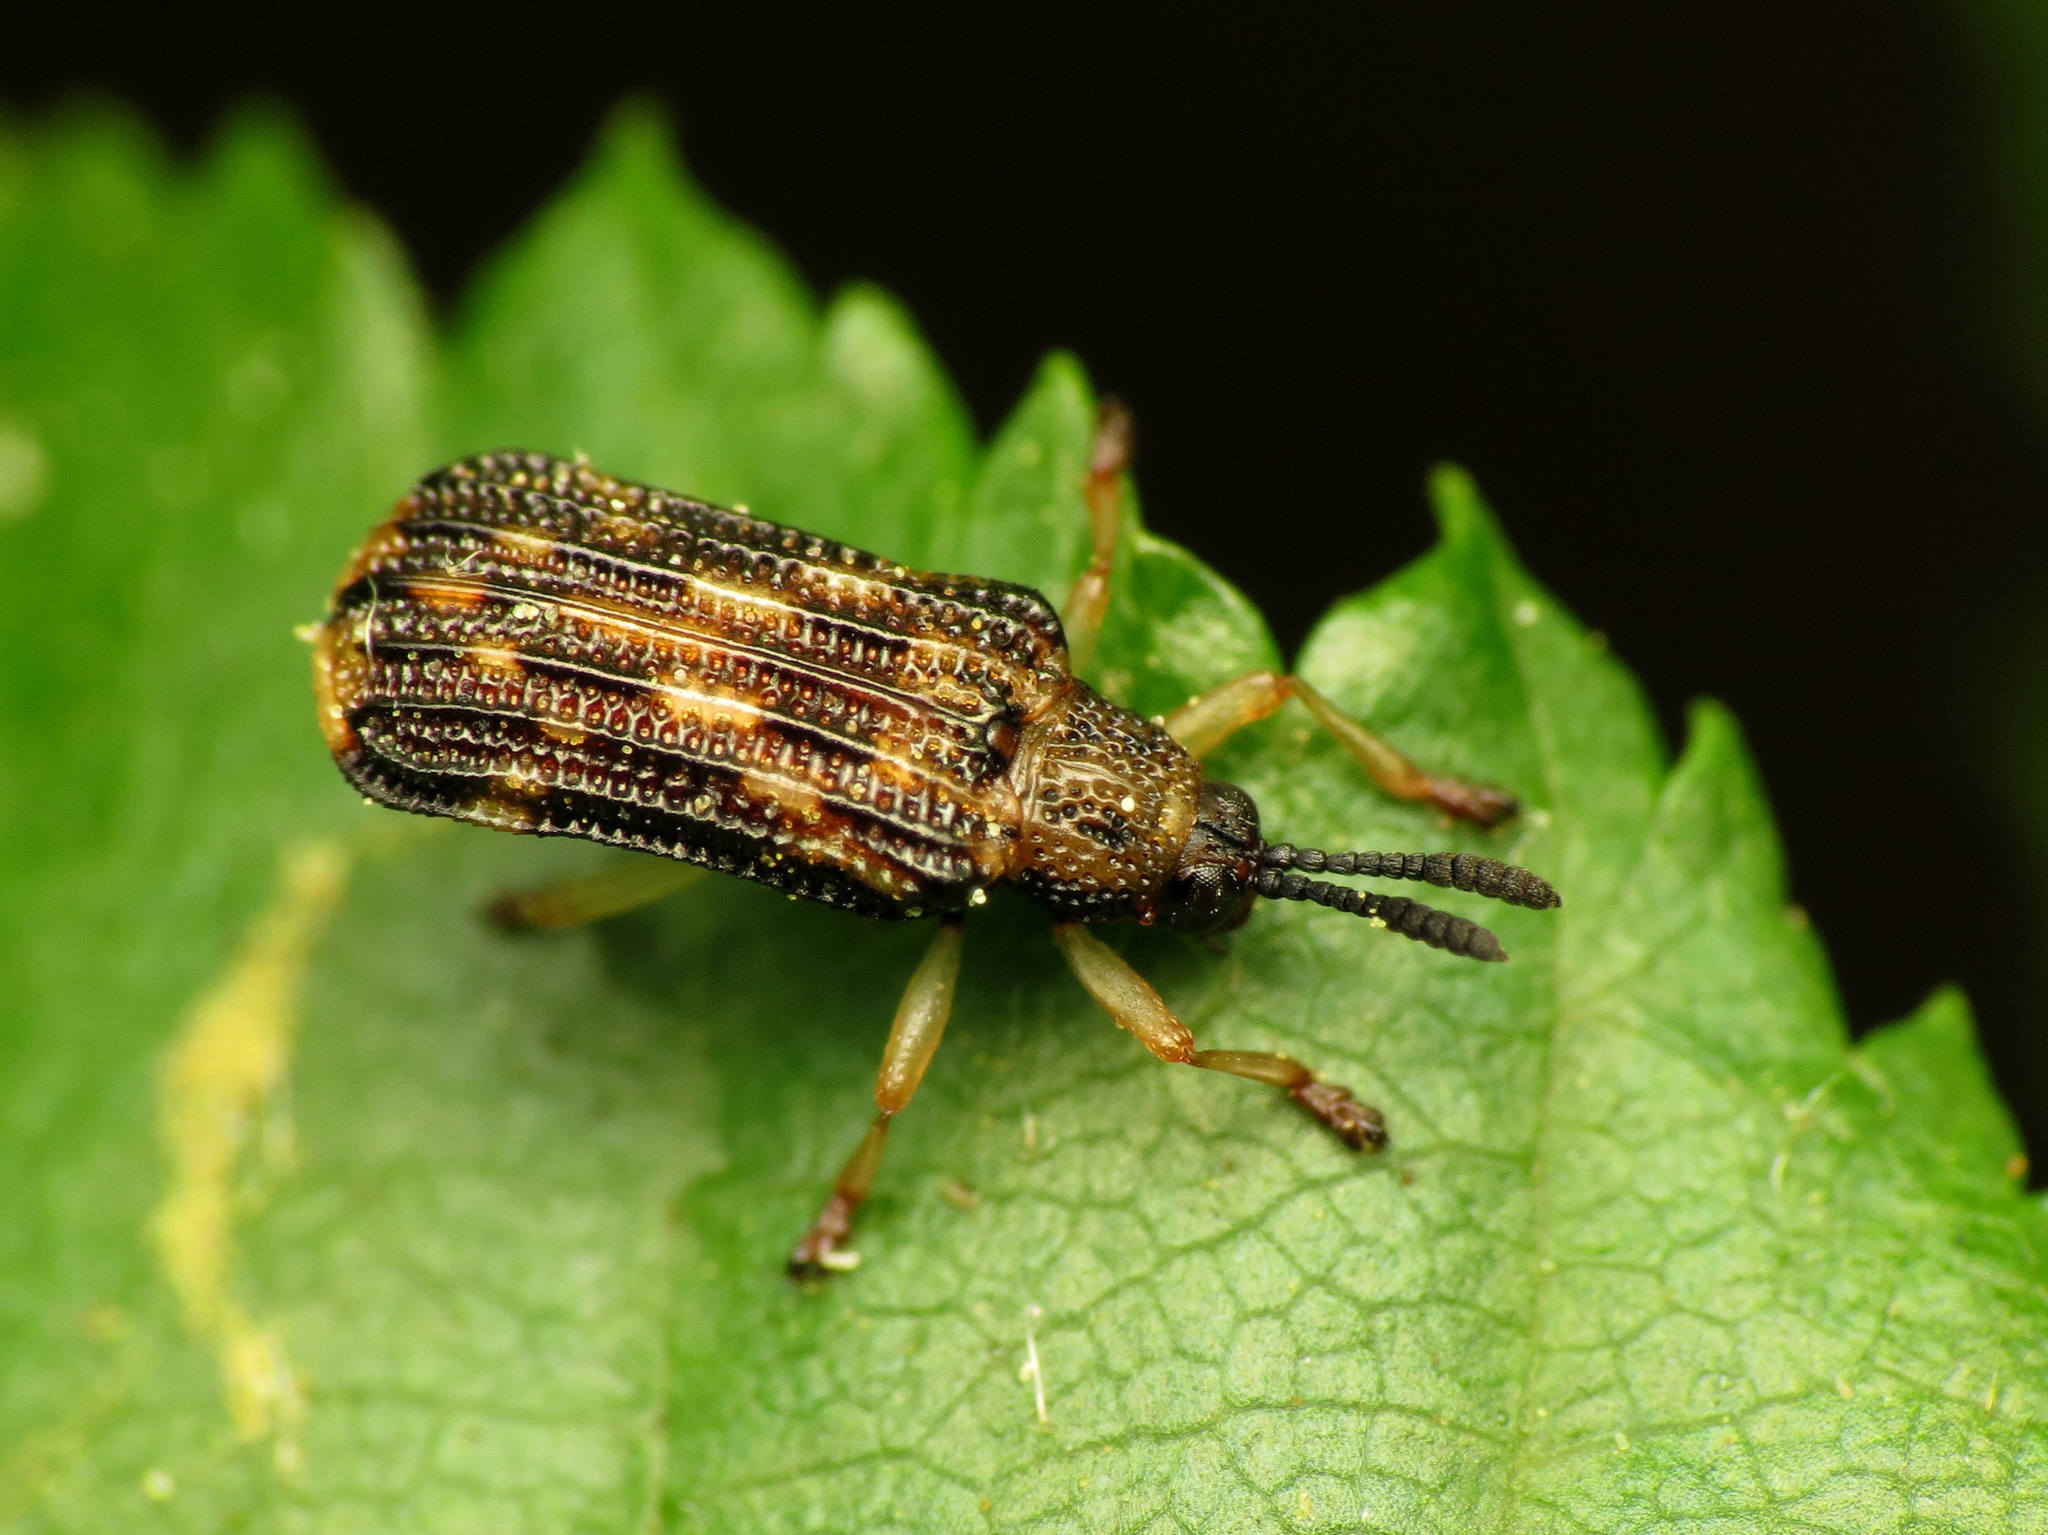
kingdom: Animalia
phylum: Arthropoda
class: Insecta
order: Coleoptera
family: Chrysomelidae
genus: Sumitrosis
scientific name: Sumitrosis inaequalis
